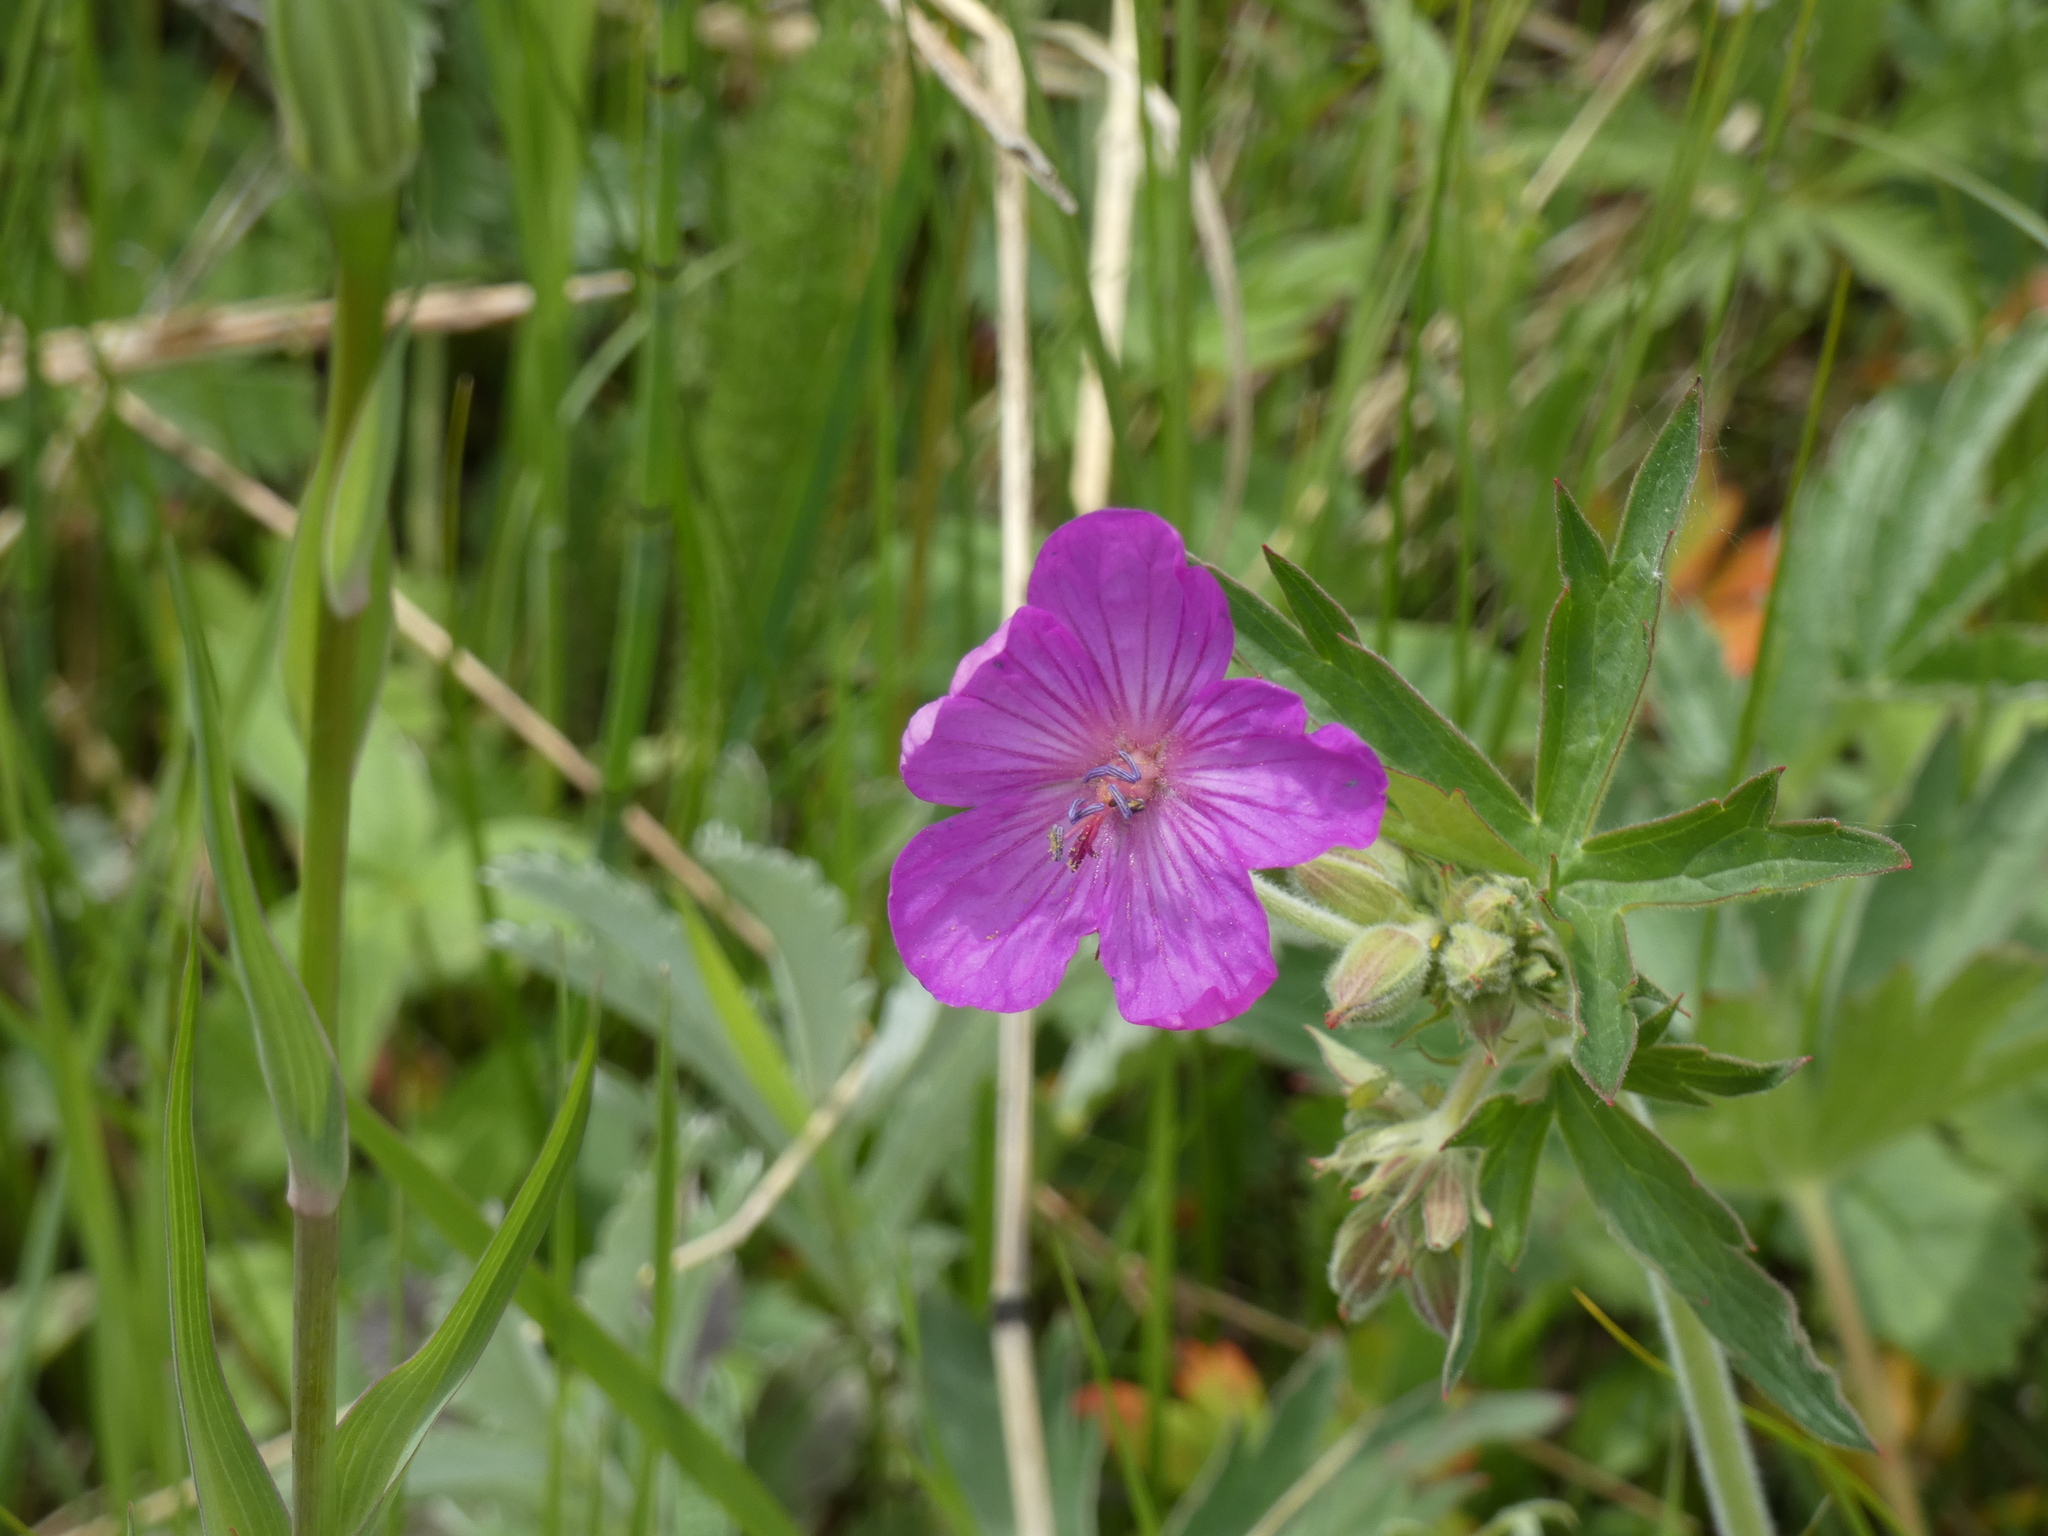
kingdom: Plantae
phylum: Tracheophyta
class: Magnoliopsida
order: Geraniales
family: Geraniaceae
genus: Geranium
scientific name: Geranium viscosissimum
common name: Purple geranium
